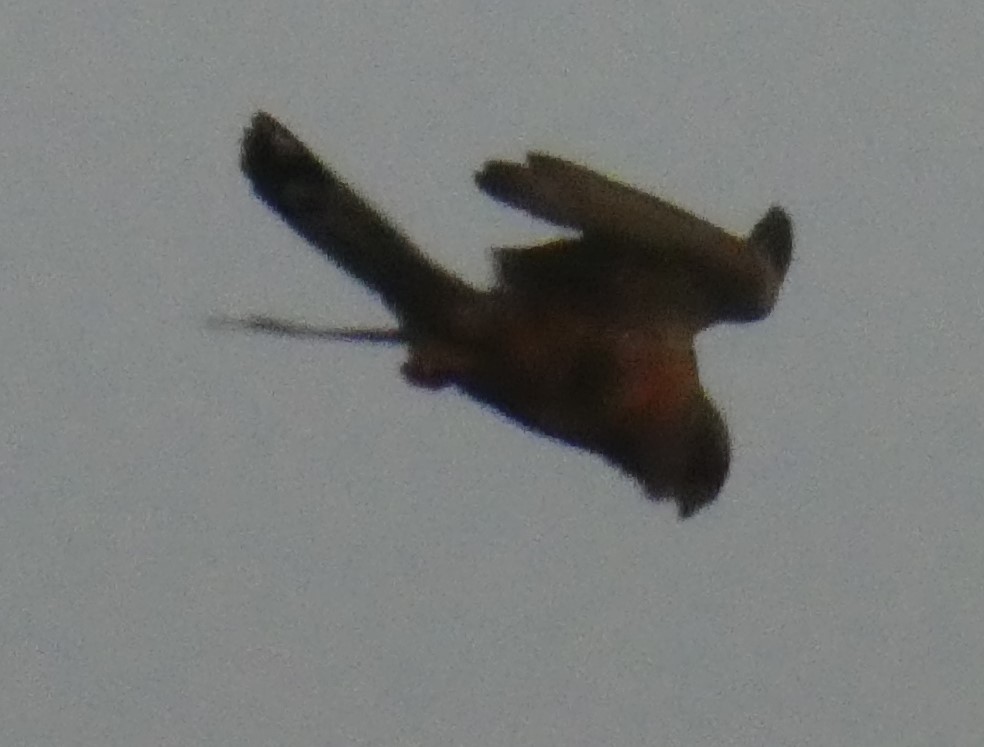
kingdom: Animalia
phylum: Chordata
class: Aves
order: Falconiformes
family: Falconidae
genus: Falco
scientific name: Falco tinnunculus
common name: Common kestrel
